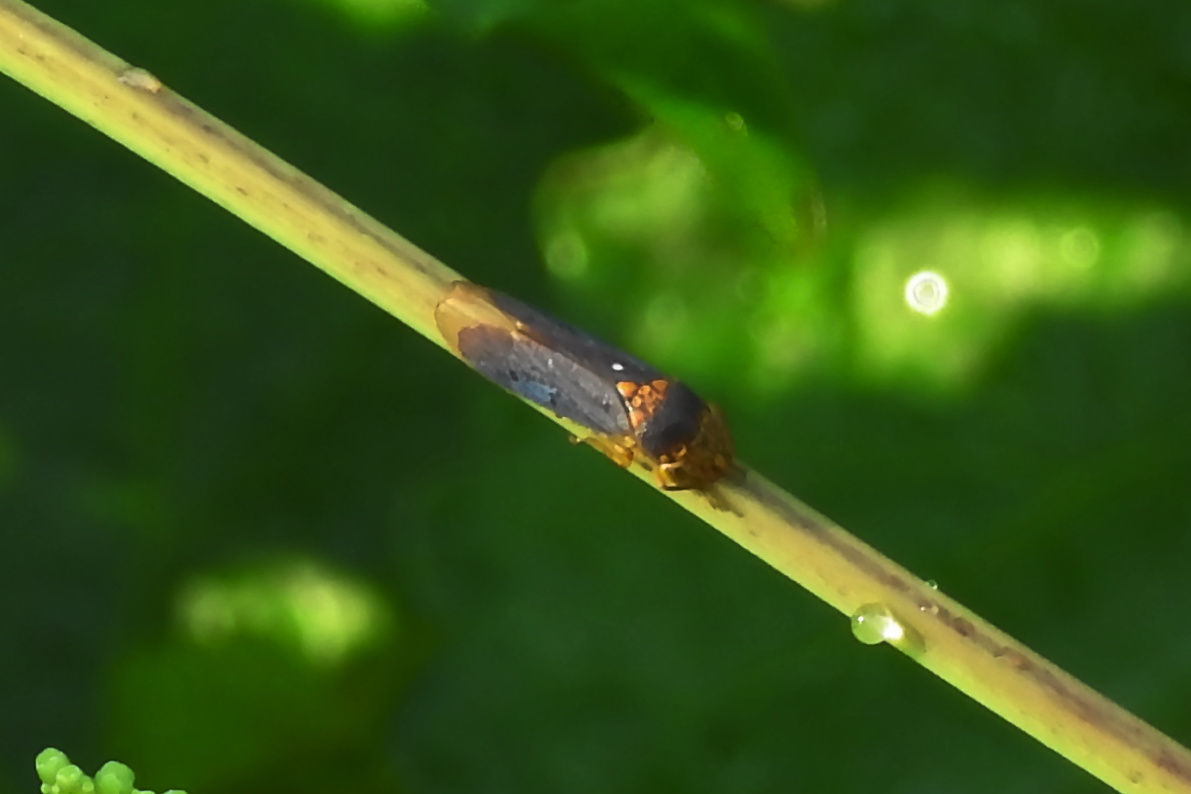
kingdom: Animalia
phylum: Arthropoda
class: Insecta
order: Hemiptera
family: Cicadellidae
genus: Oncometopia
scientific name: Oncometopia orbona
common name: Broad-headed sharpshooter
